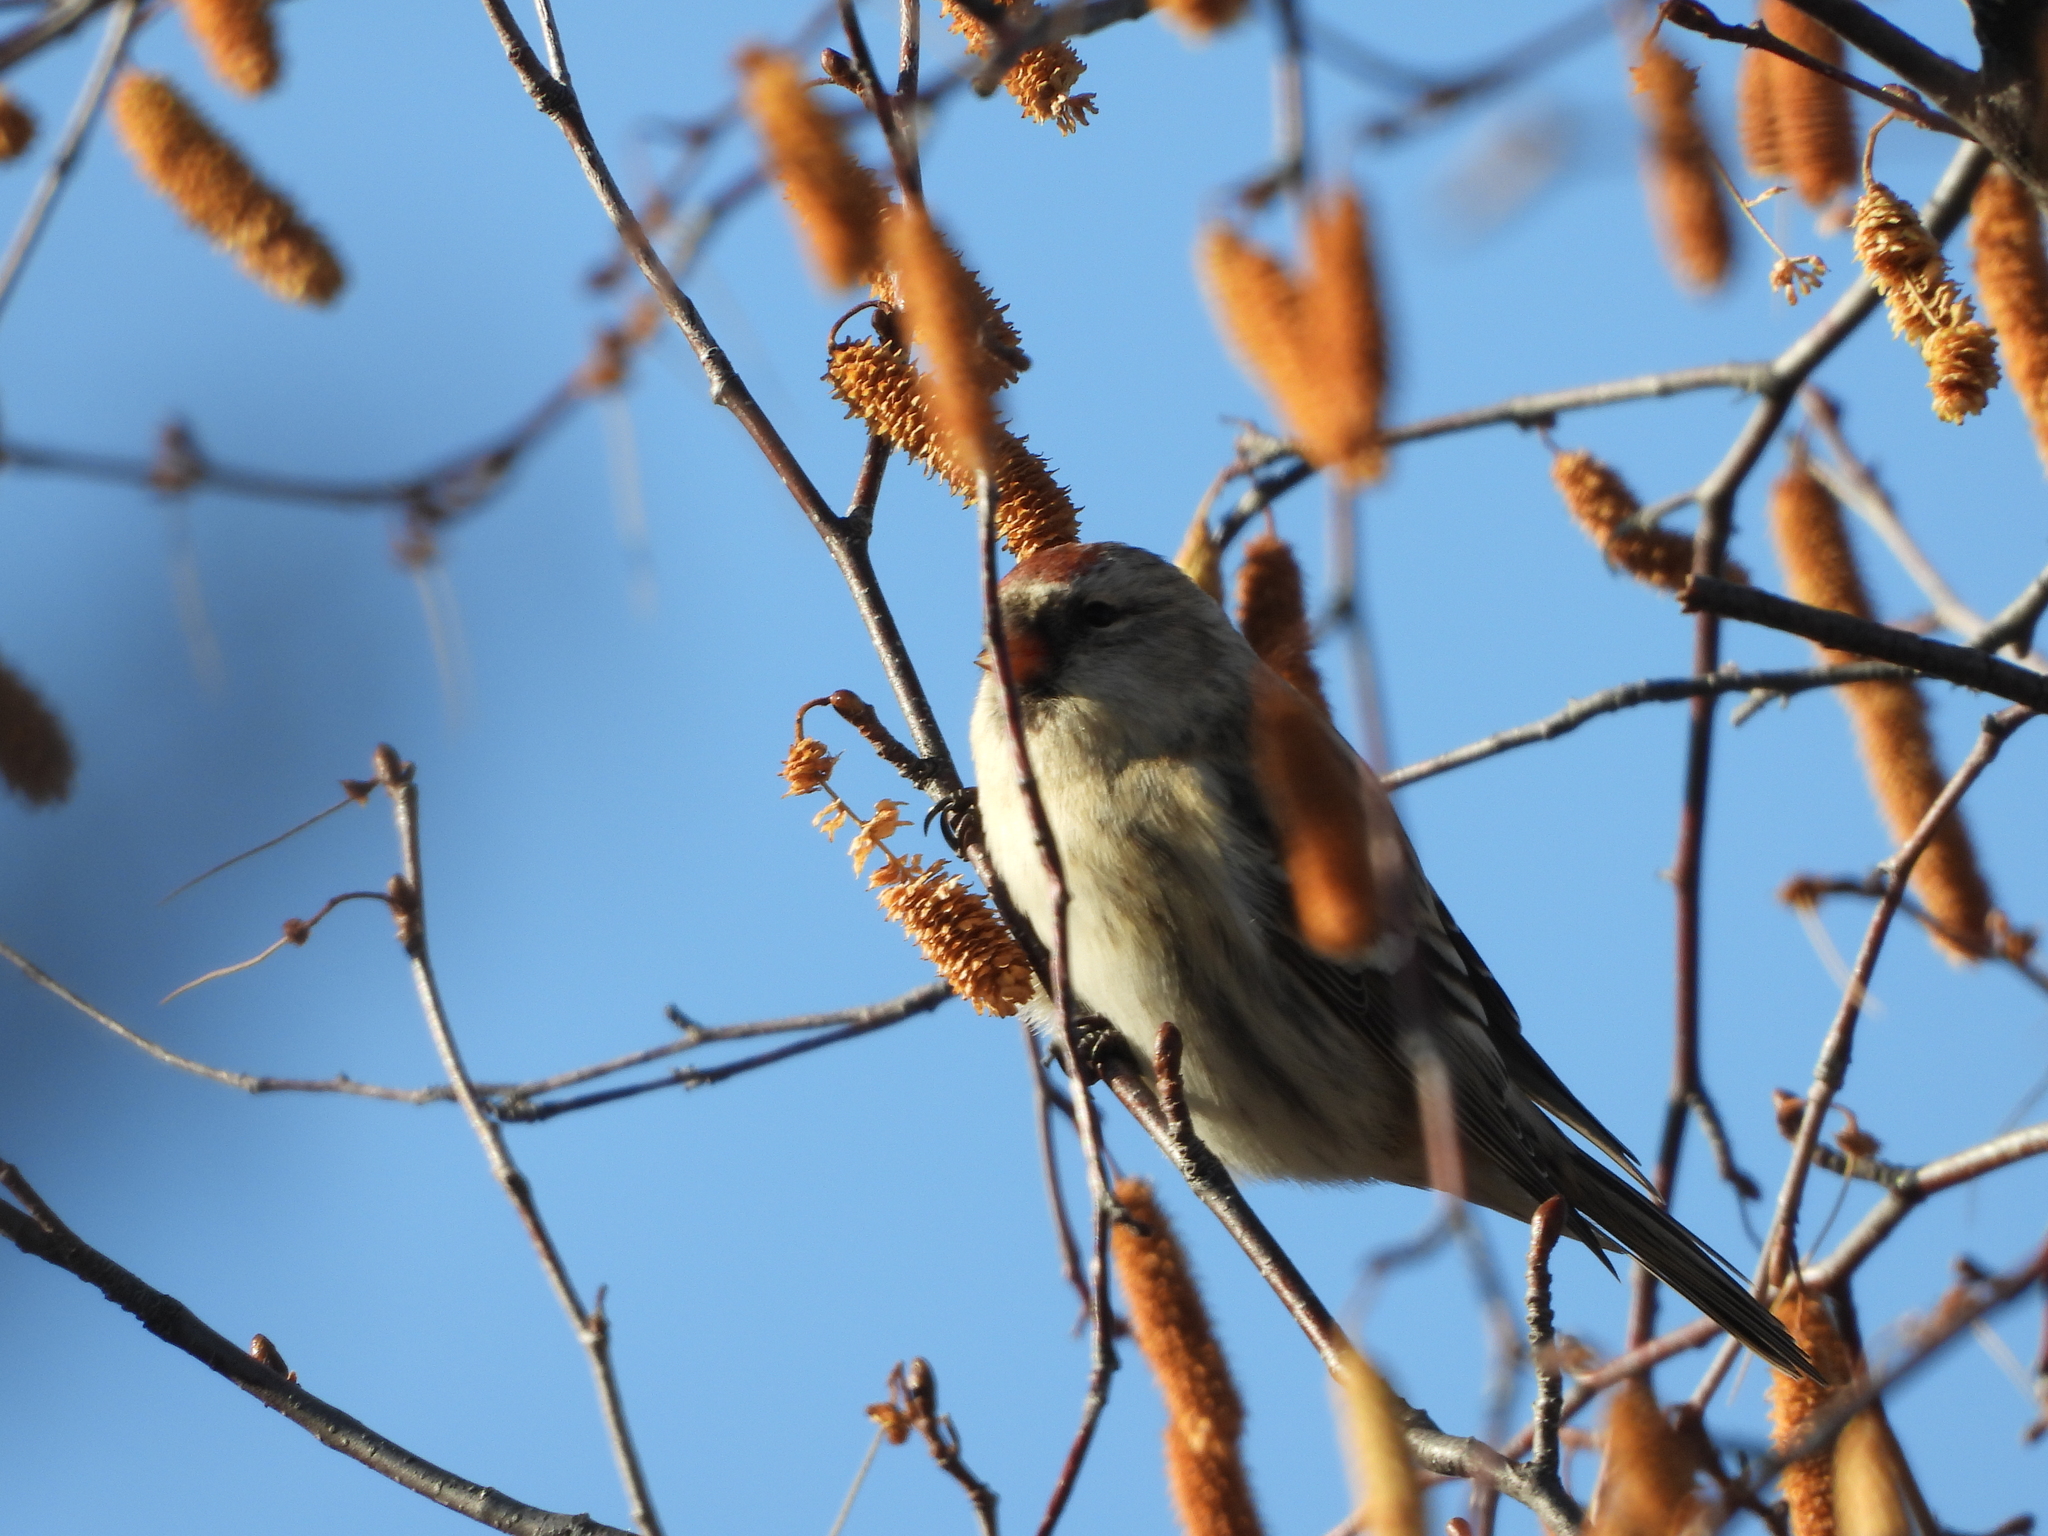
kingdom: Animalia
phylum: Chordata
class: Aves
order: Passeriformes
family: Fringillidae
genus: Acanthis
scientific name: Acanthis flammea
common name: Common redpoll
